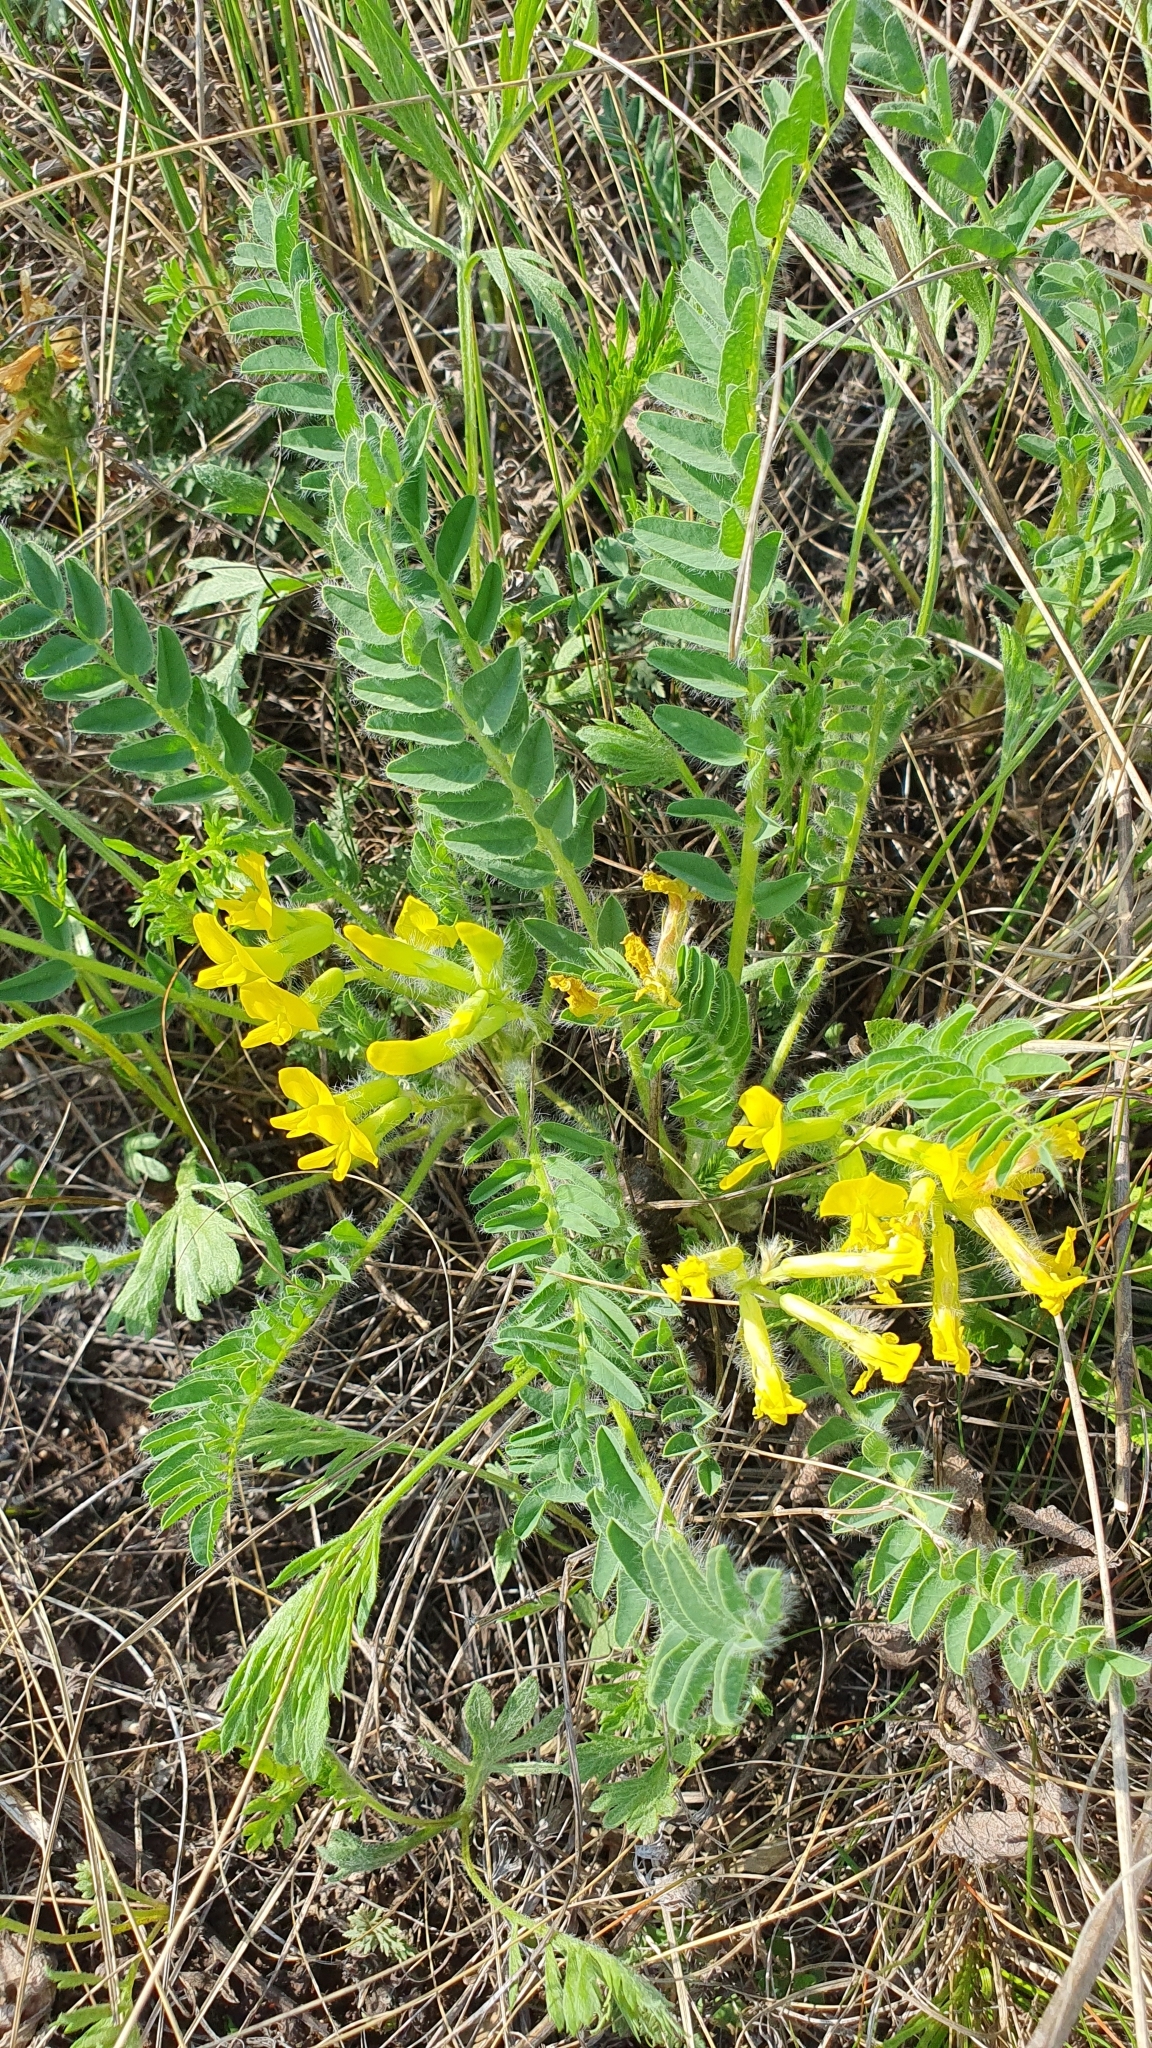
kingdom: Plantae
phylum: Tracheophyta
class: Magnoliopsida
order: Fabales
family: Fabaceae
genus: Astragalus
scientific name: Astragalus wolgensis
